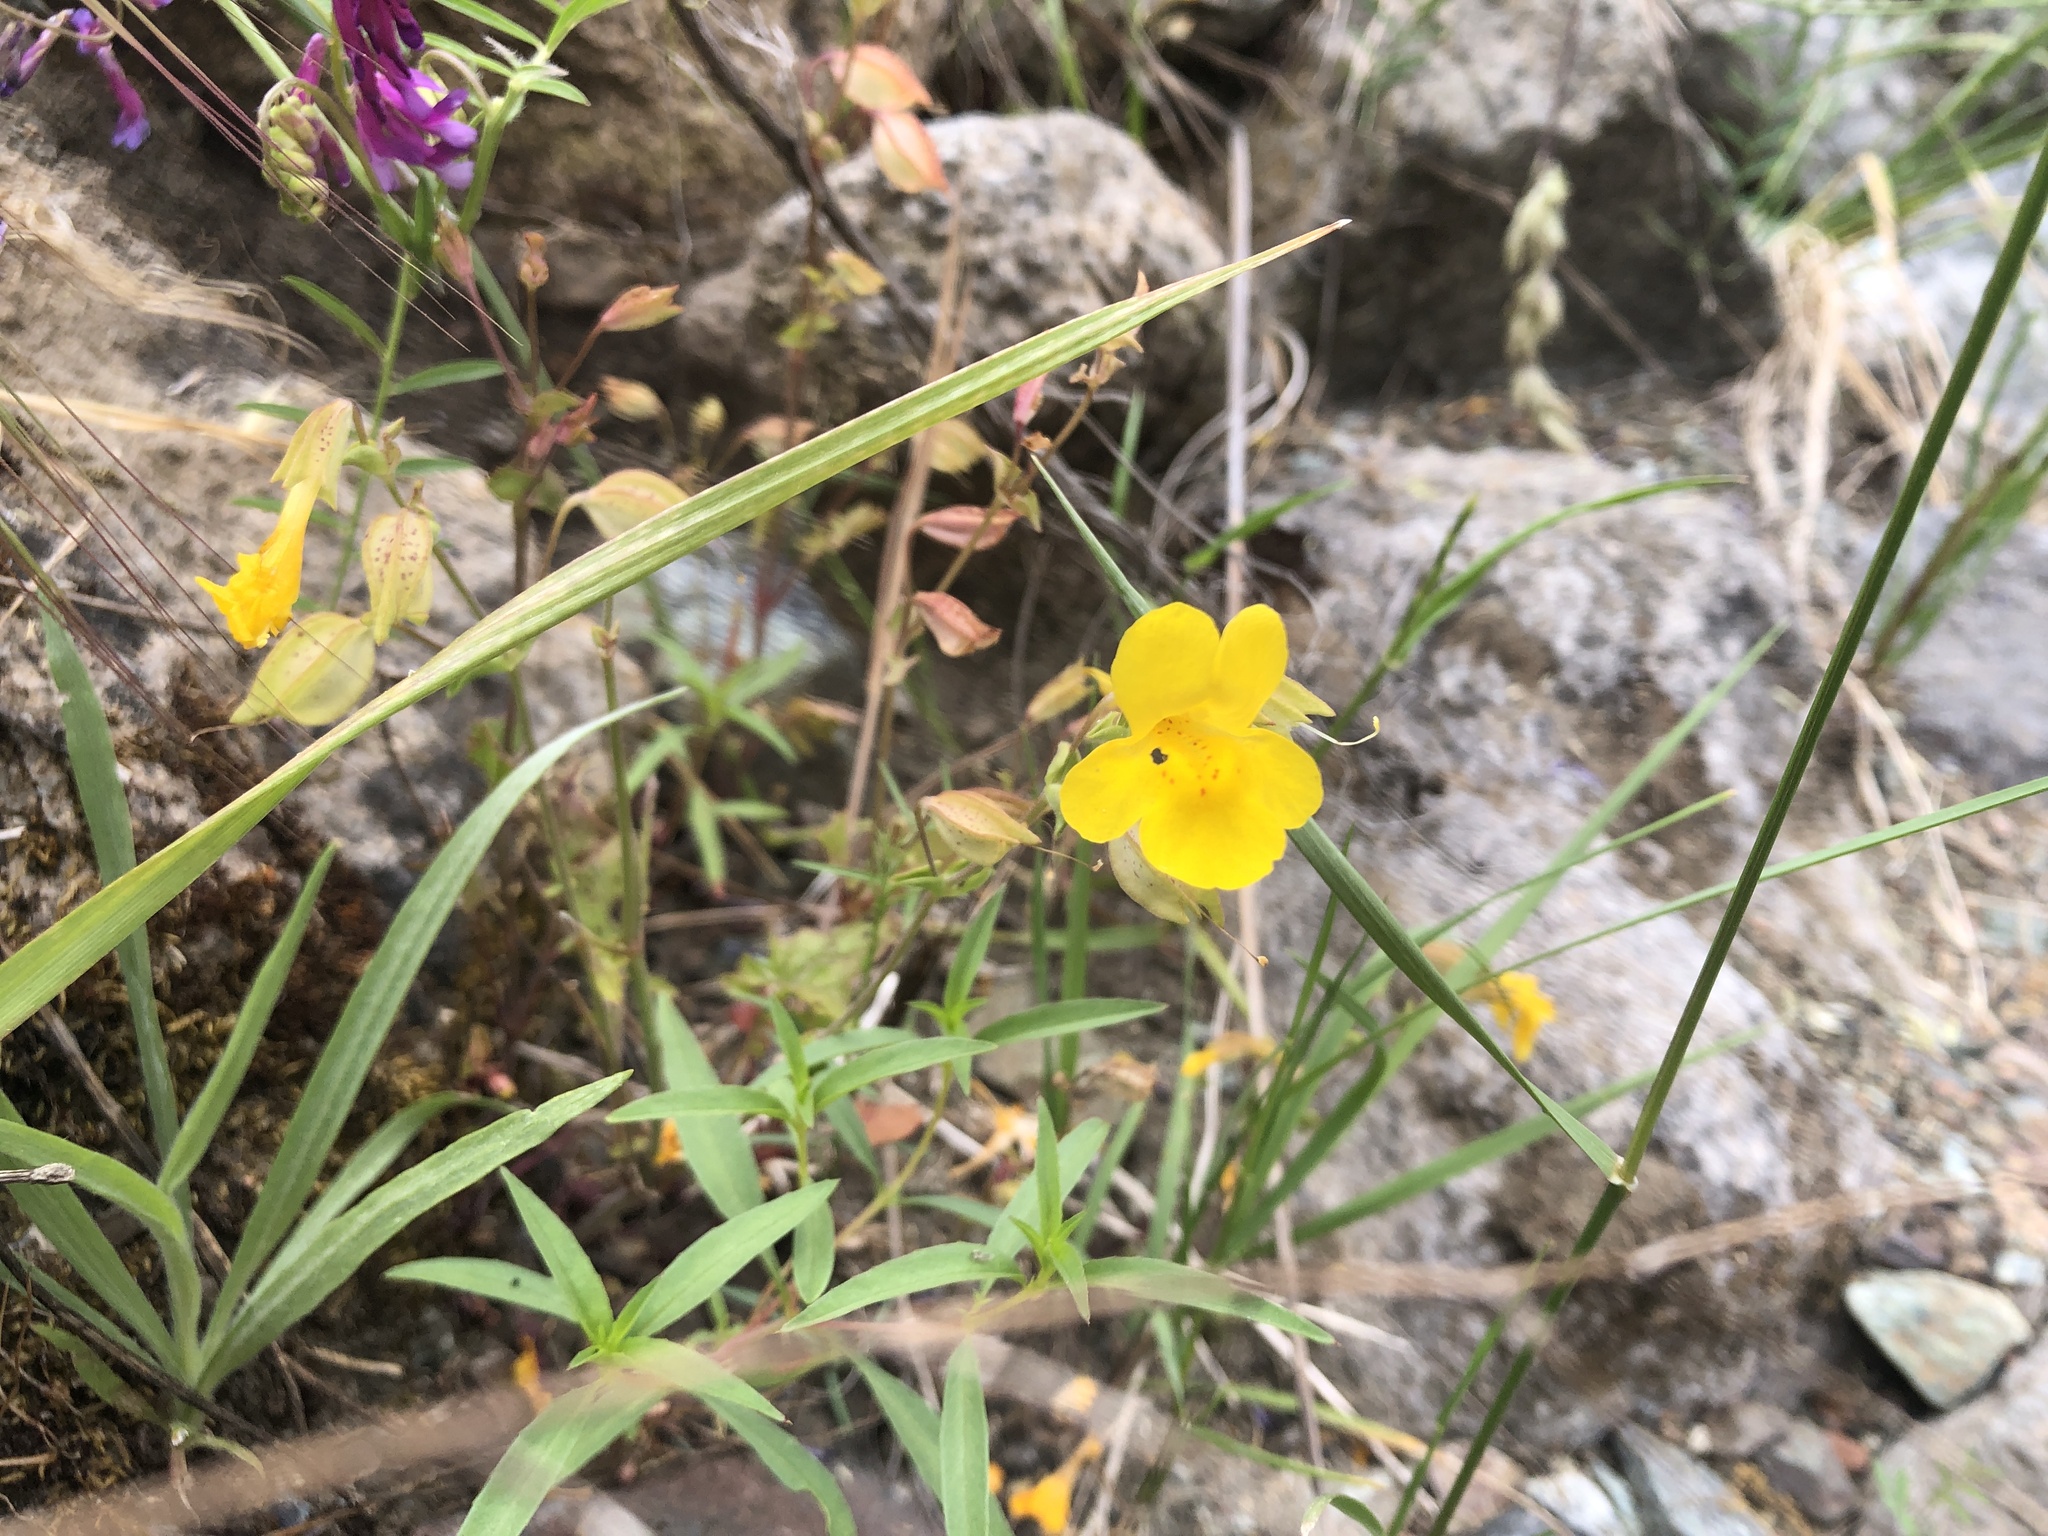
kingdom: Plantae
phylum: Tracheophyta
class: Magnoliopsida
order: Lamiales
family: Phrymaceae
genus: Erythranthe
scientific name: Erythranthe microphylla
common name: Bentham's monkeyflower
